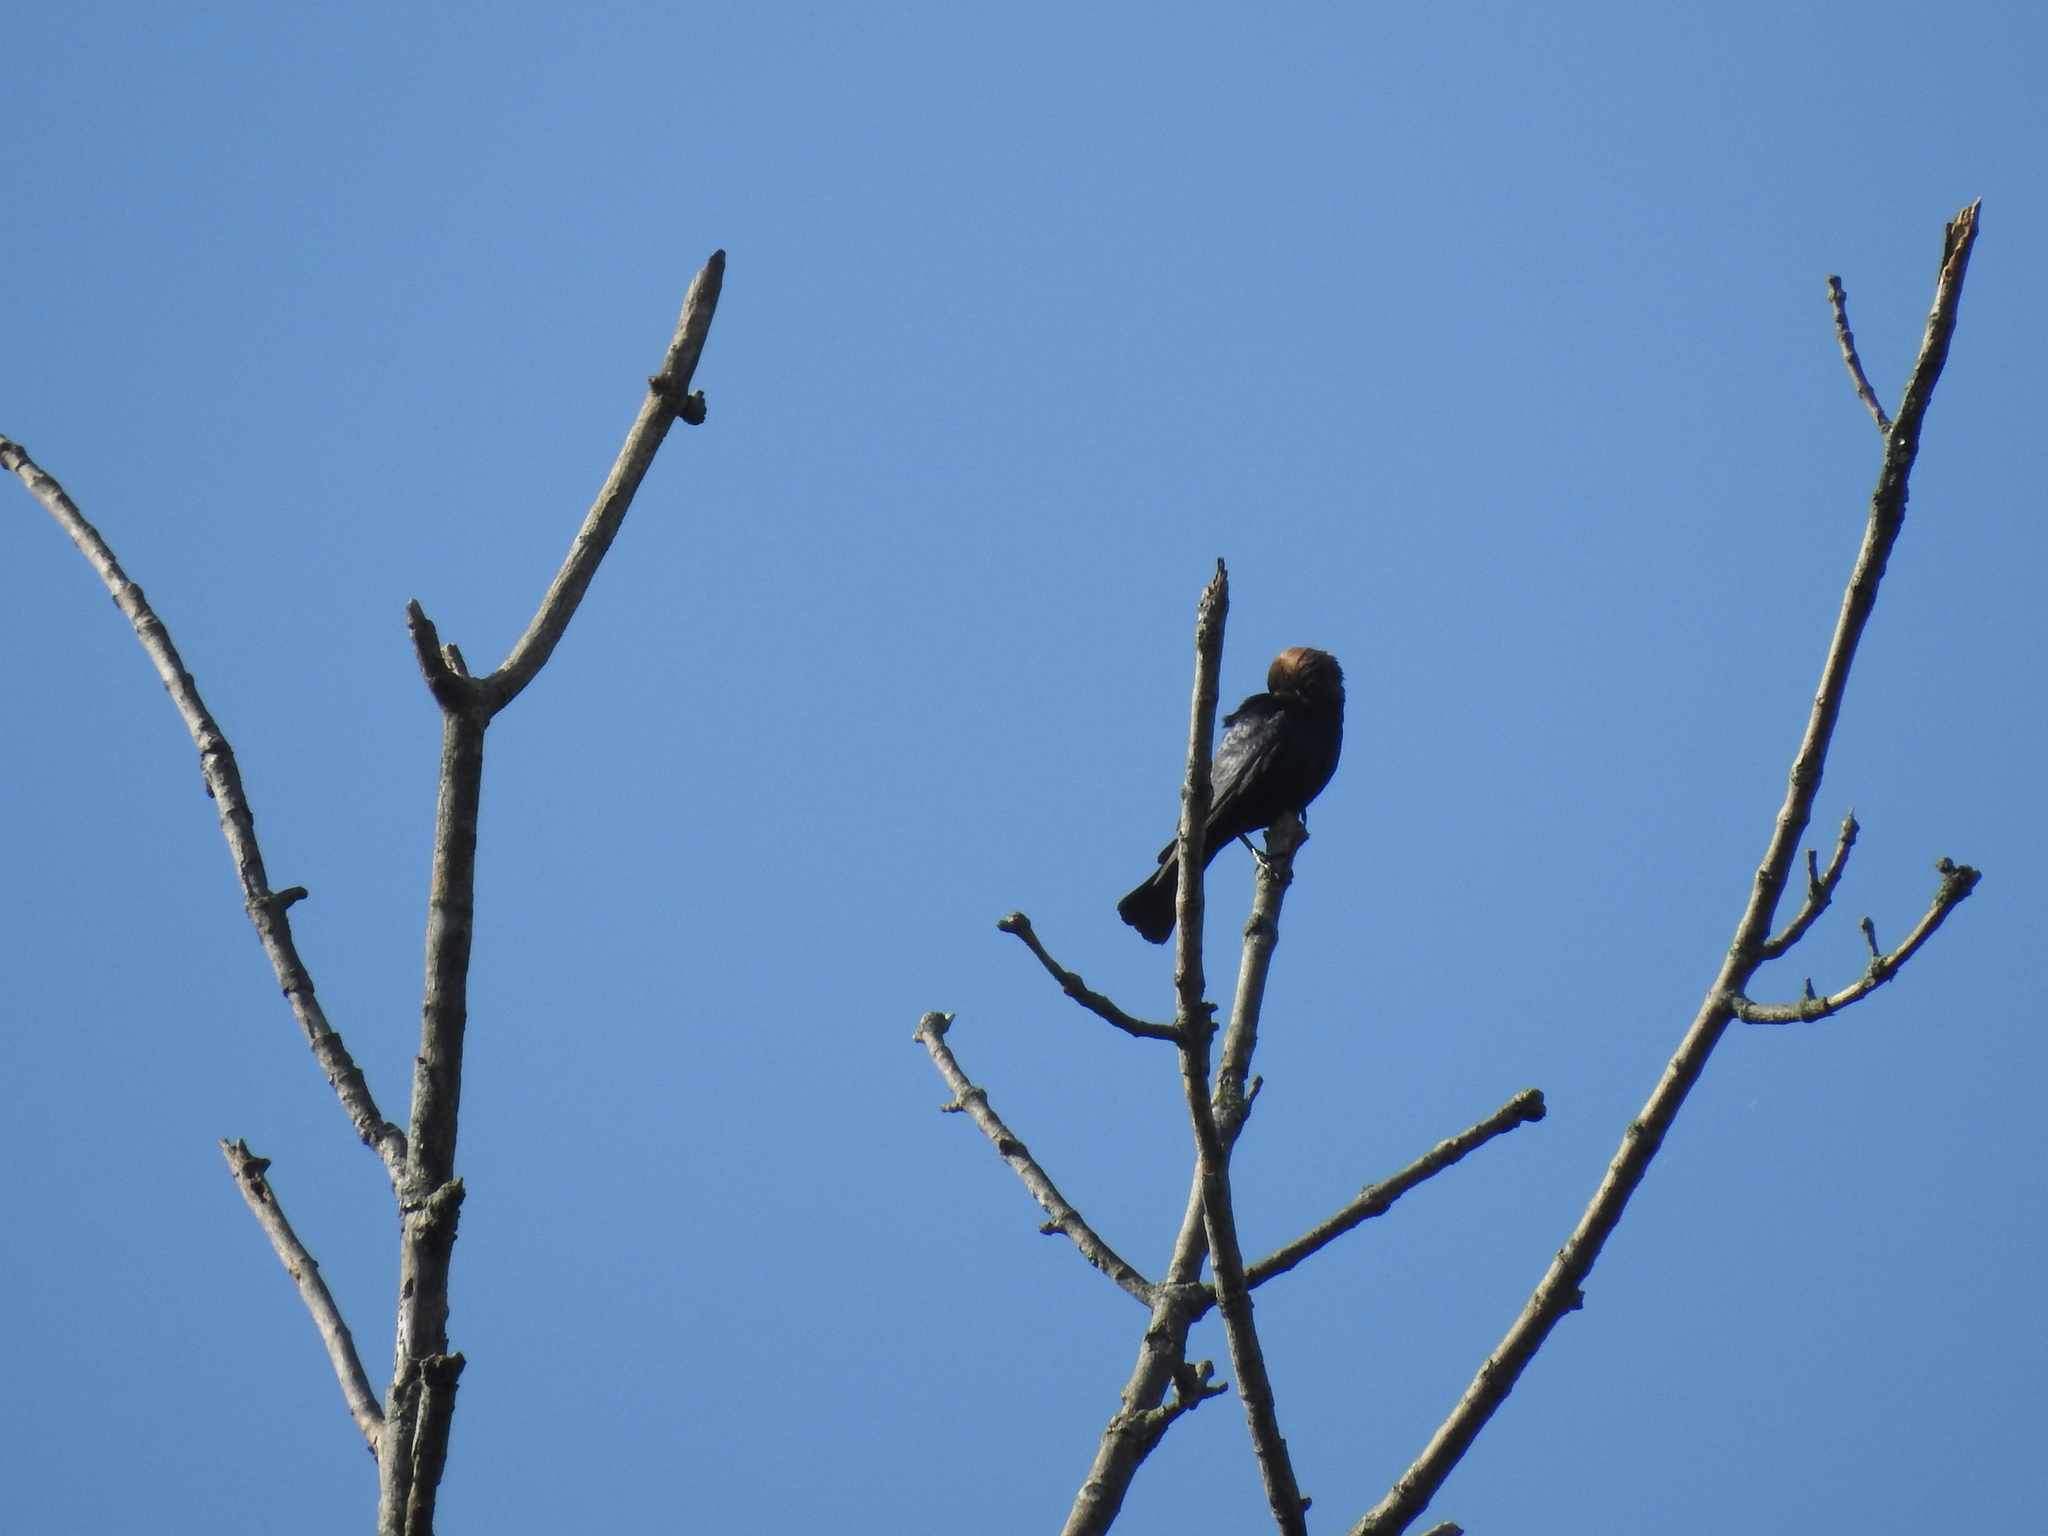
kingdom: Animalia
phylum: Chordata
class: Aves
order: Passeriformes
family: Icteridae
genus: Molothrus
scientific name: Molothrus ater
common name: Brown-headed cowbird
